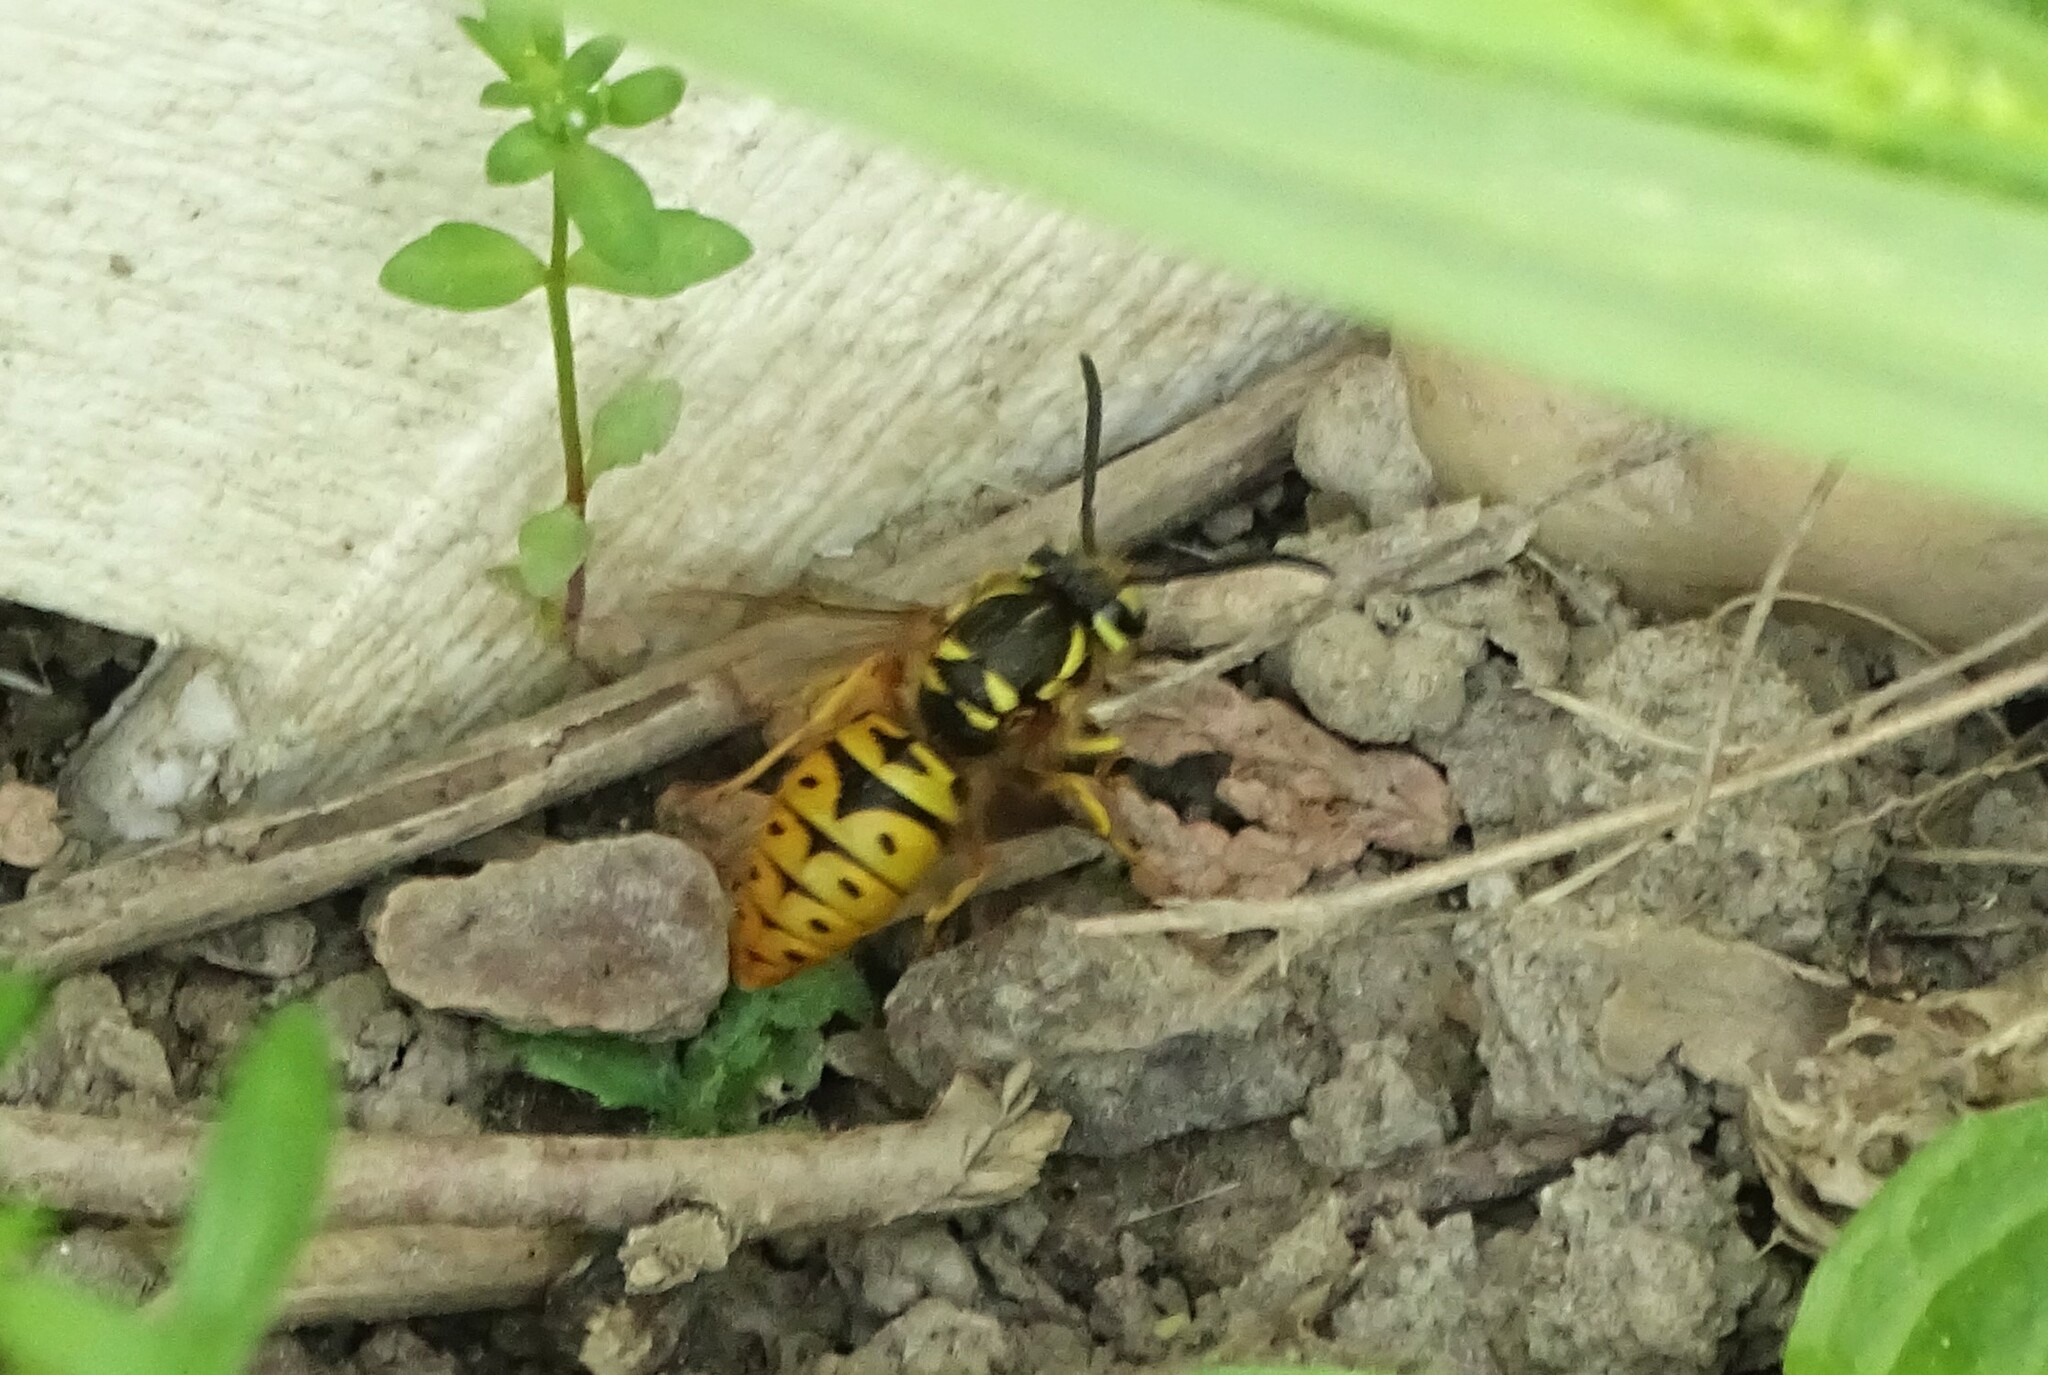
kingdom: Animalia
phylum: Arthropoda
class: Insecta
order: Hymenoptera
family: Vespidae
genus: Vespula
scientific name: Vespula maculifrons
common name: Eastern yellowjacket
